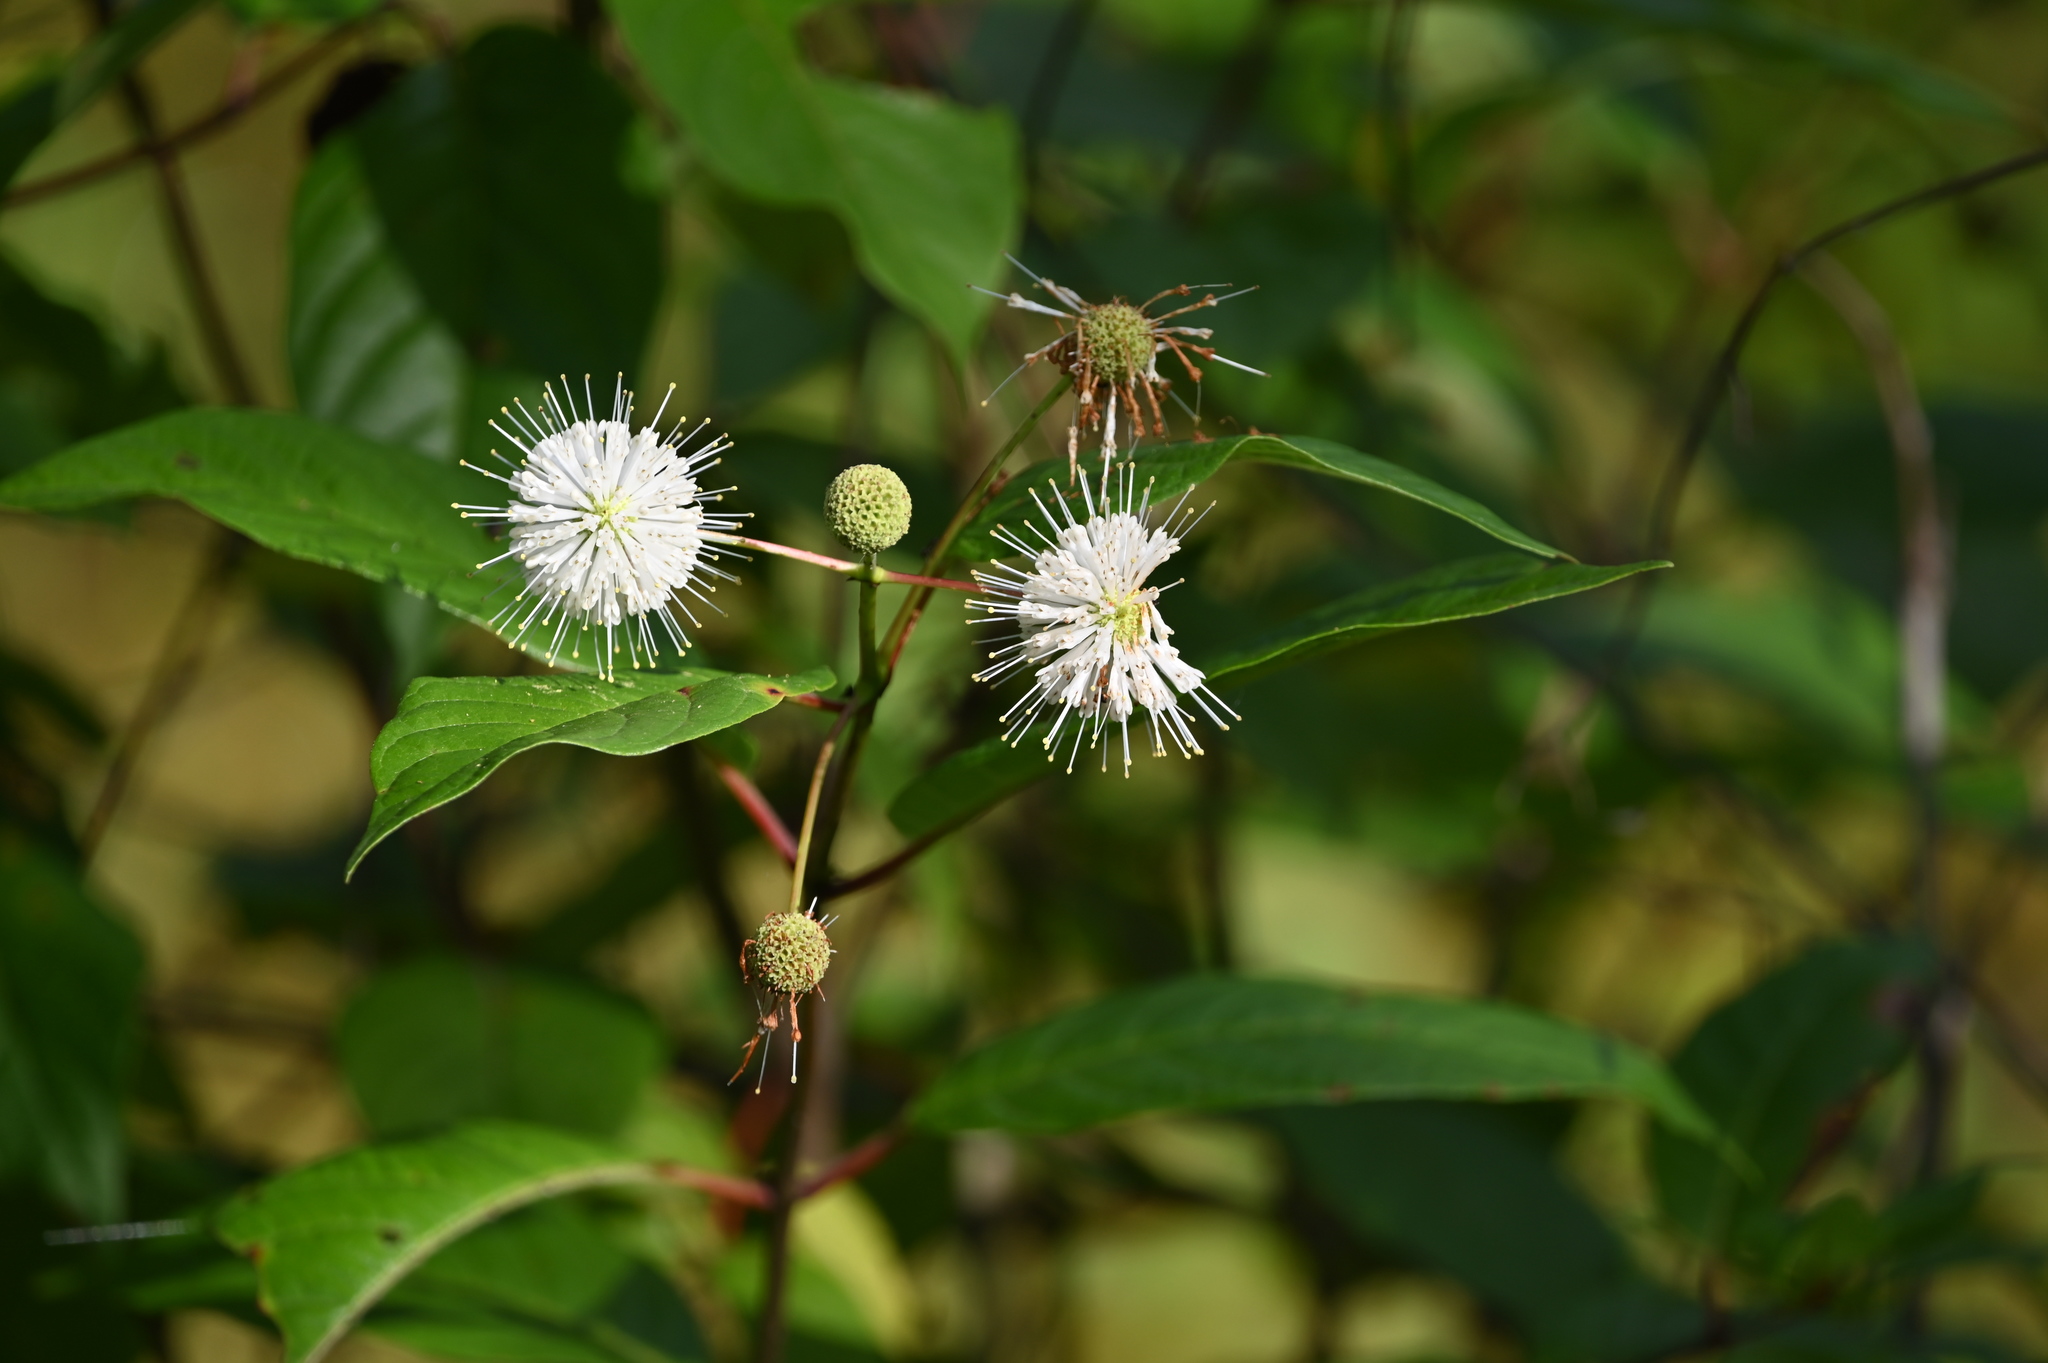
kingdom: Plantae
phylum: Tracheophyta
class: Magnoliopsida
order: Gentianales
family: Rubiaceae
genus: Cephalanthus
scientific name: Cephalanthus occidentalis
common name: Button-willow
